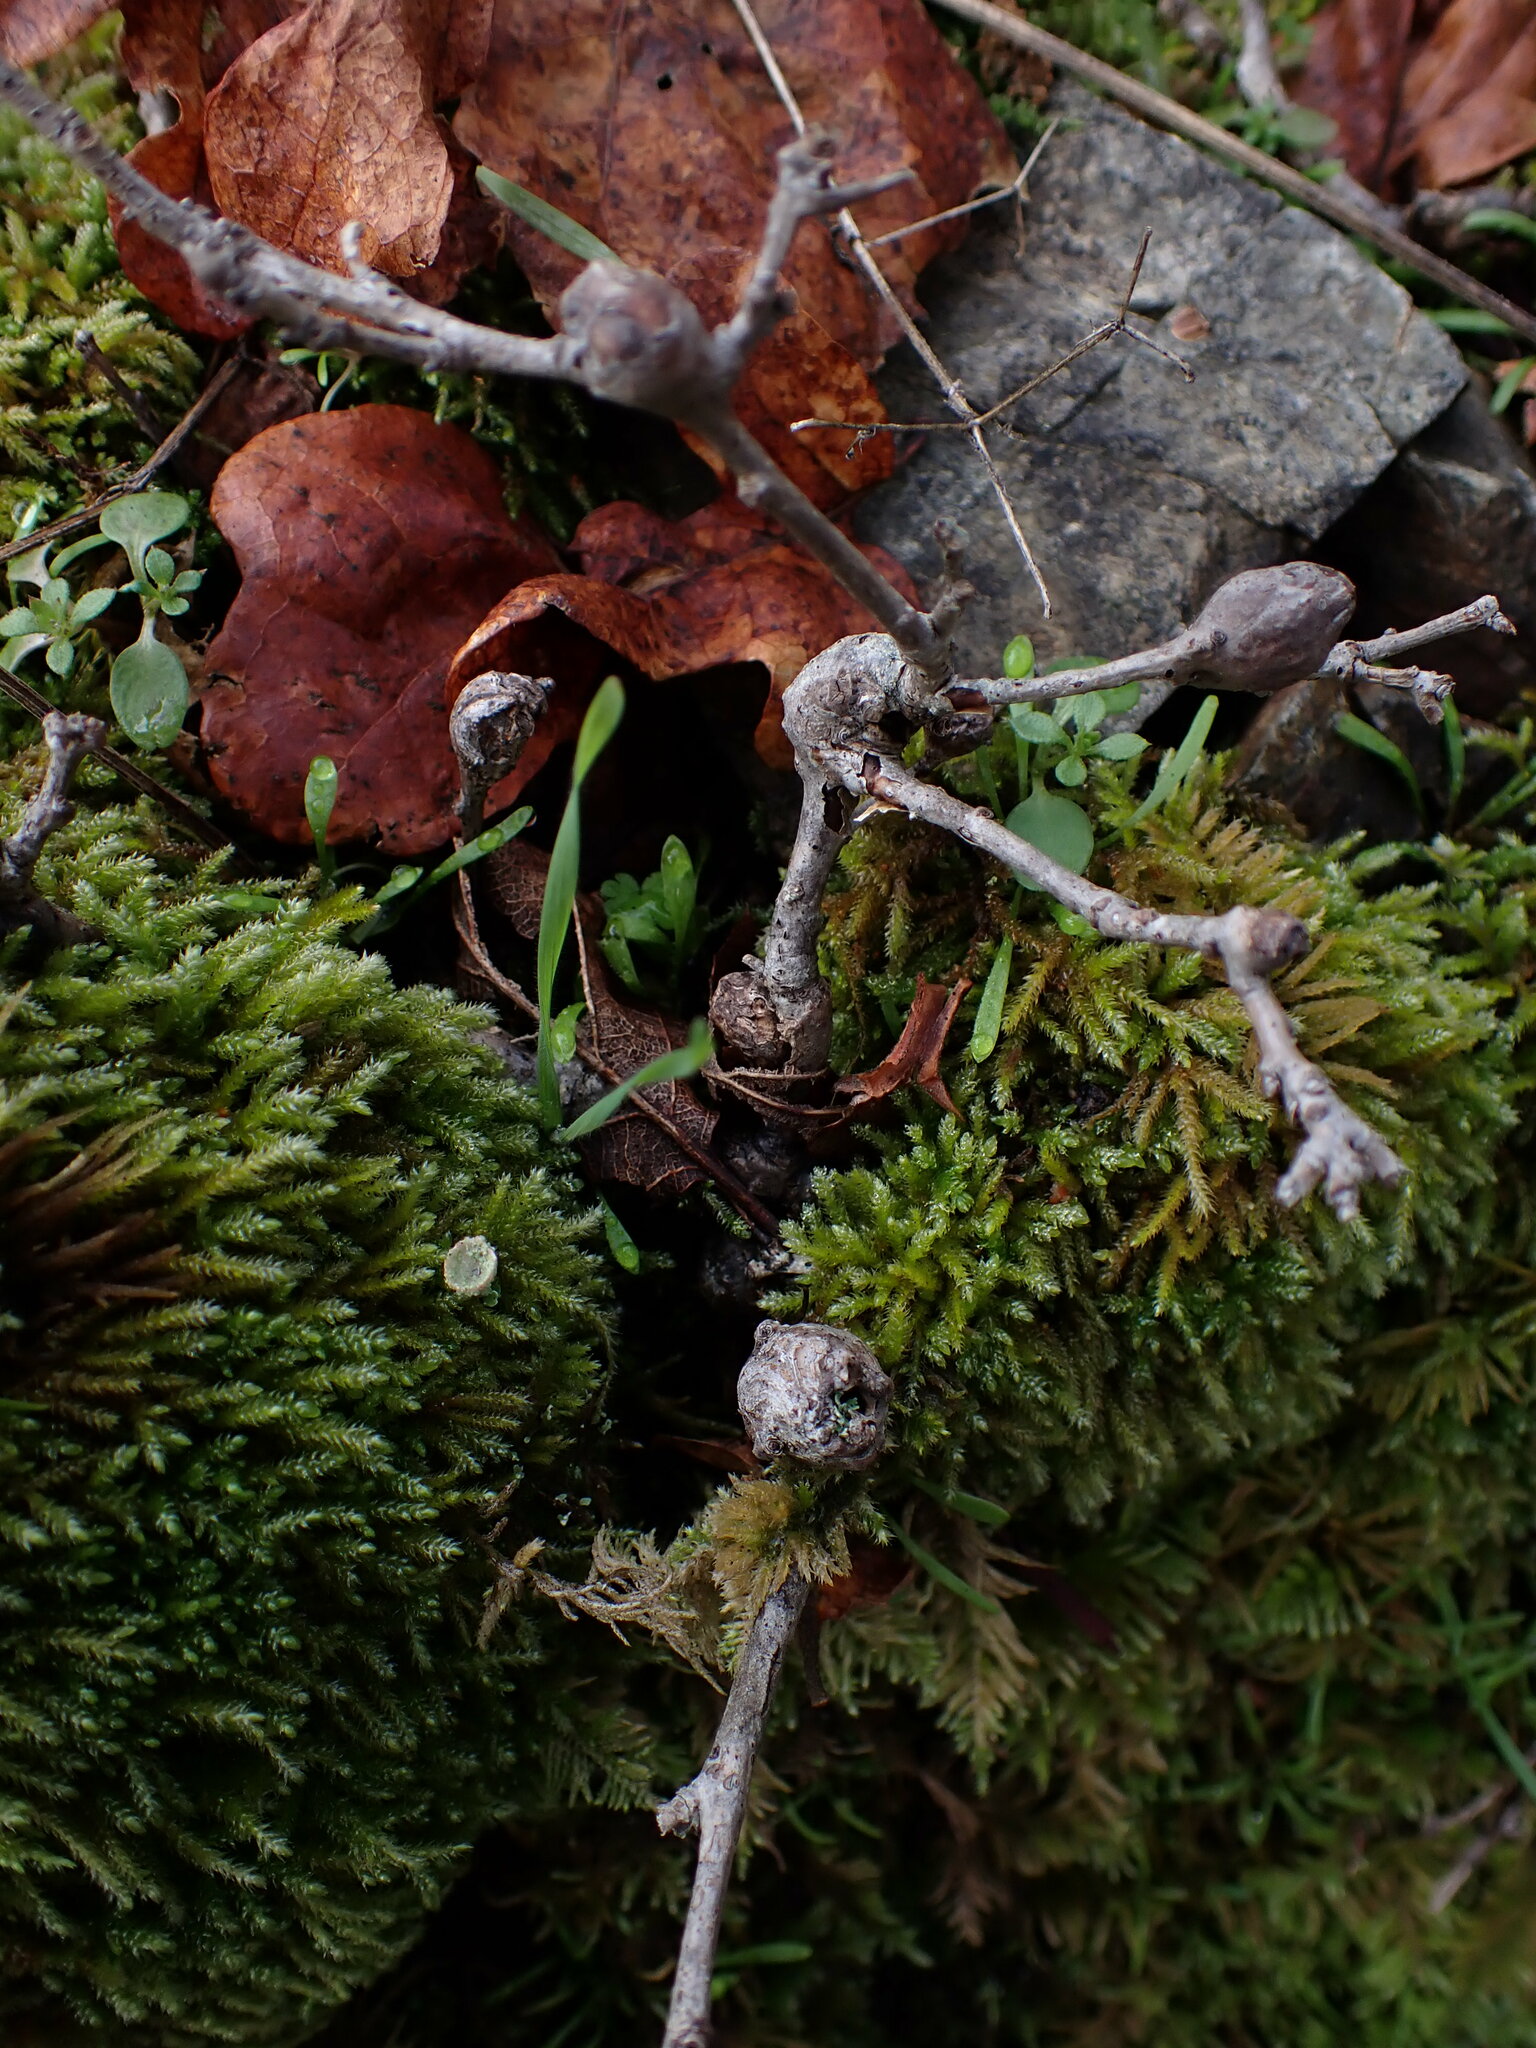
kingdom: Animalia
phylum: Arthropoda
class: Insecta
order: Hymenoptera
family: Cynipidae
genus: Andricus
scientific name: Andricus
